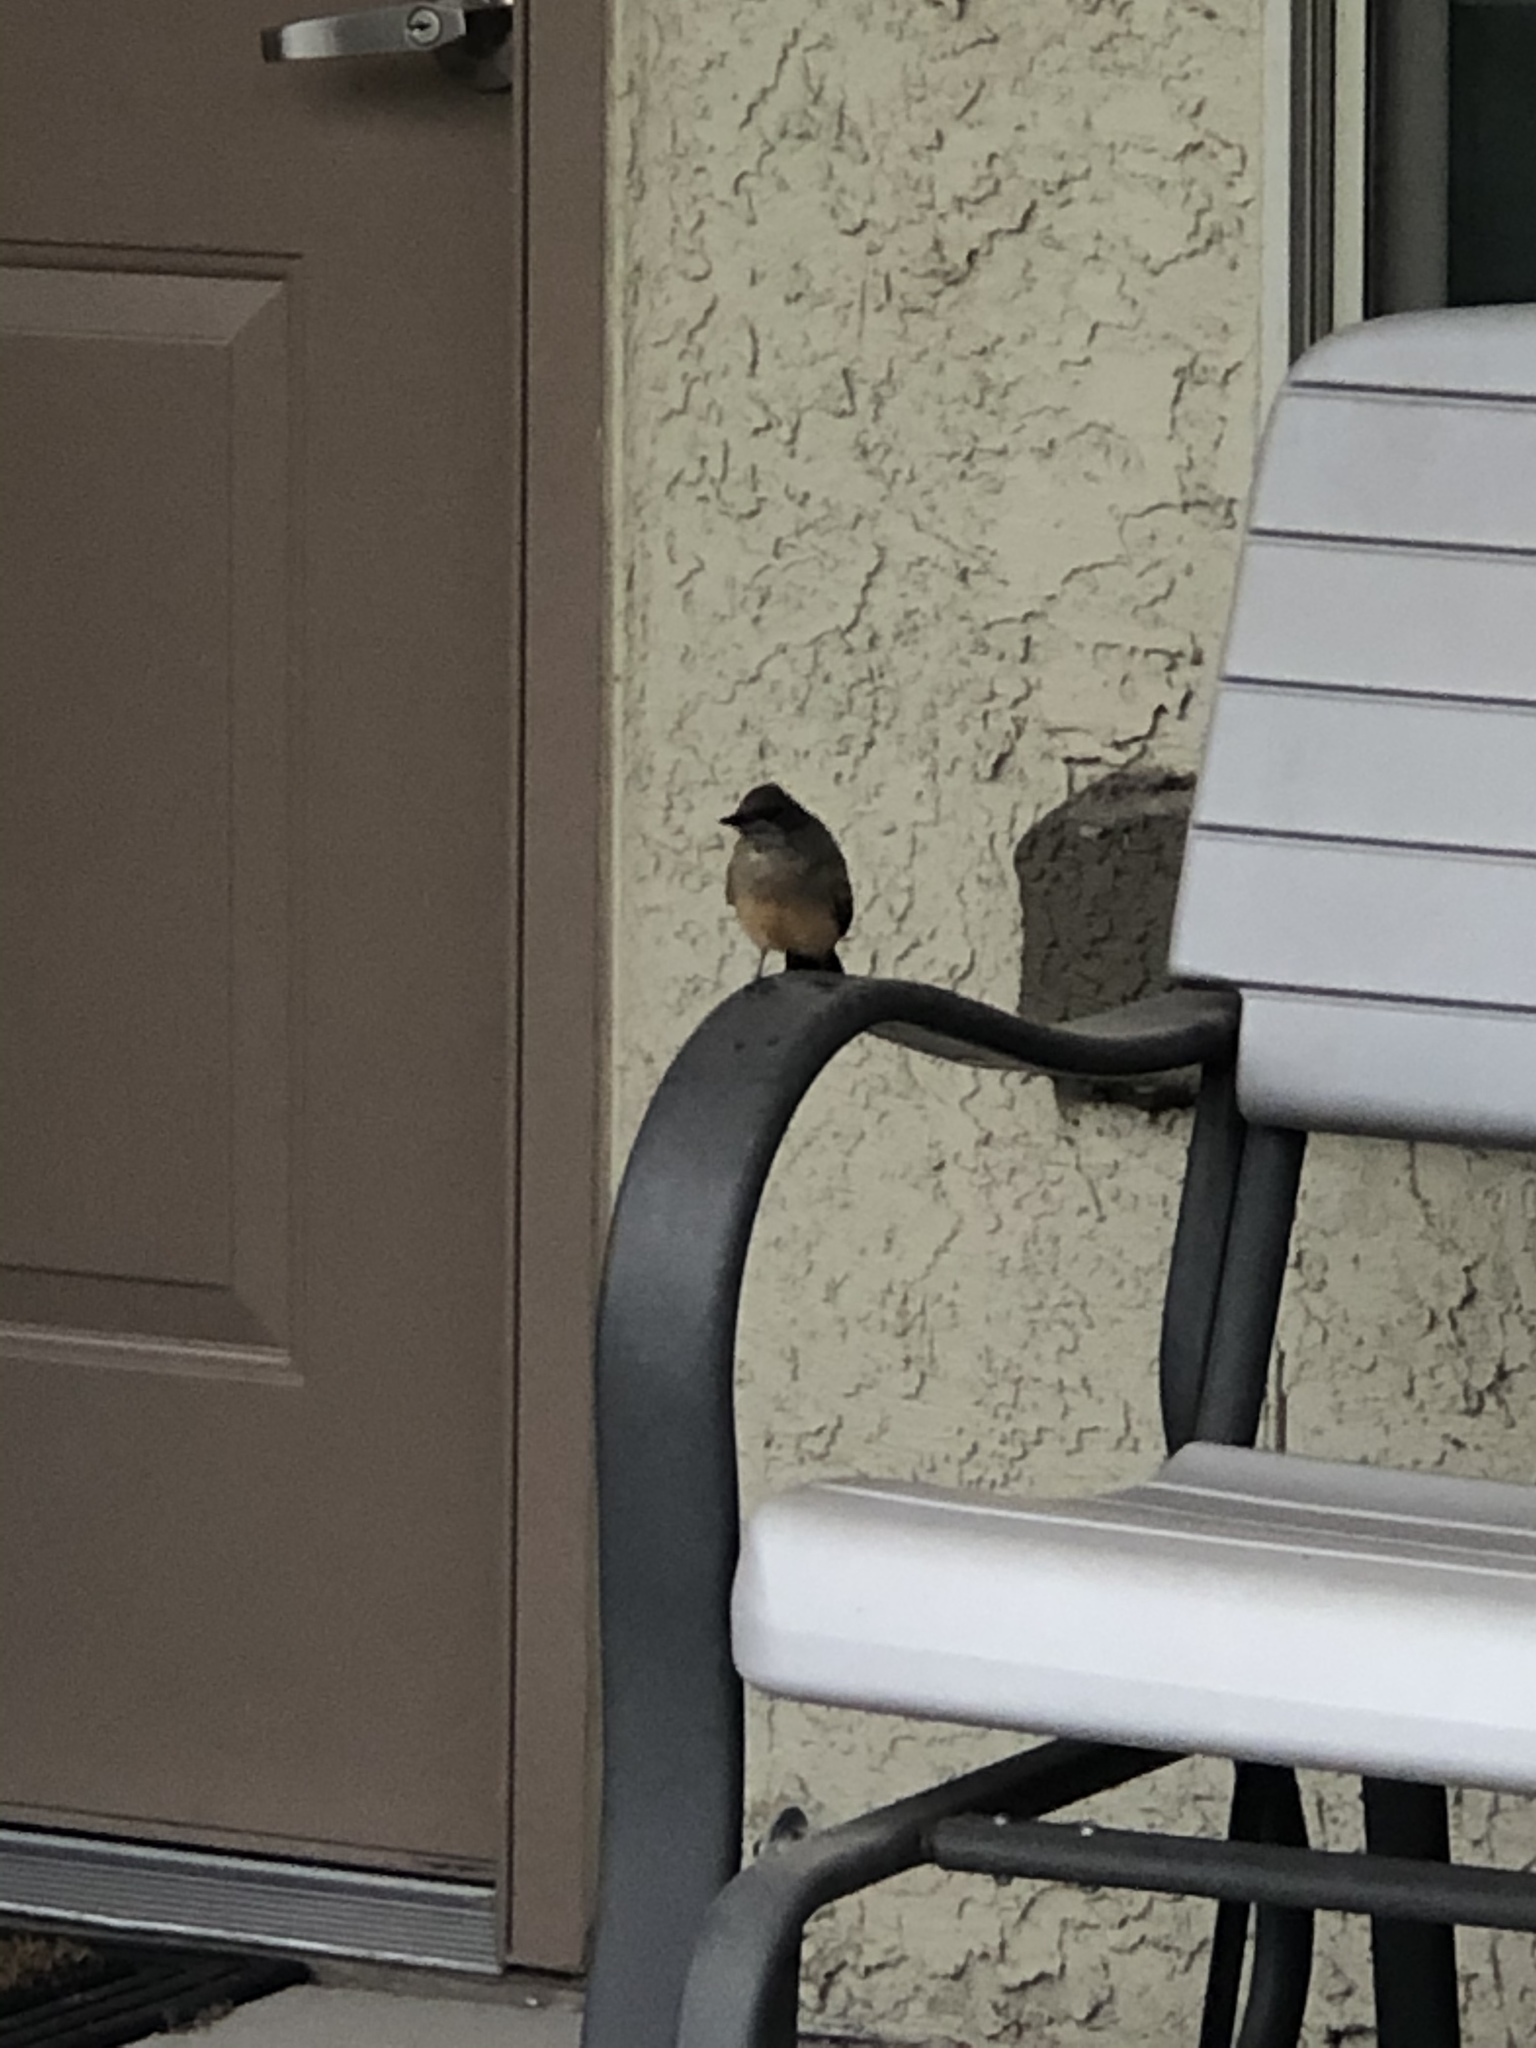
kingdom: Animalia
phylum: Chordata
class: Aves
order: Passeriformes
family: Tyrannidae
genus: Sayornis
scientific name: Sayornis saya
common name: Say's phoebe
